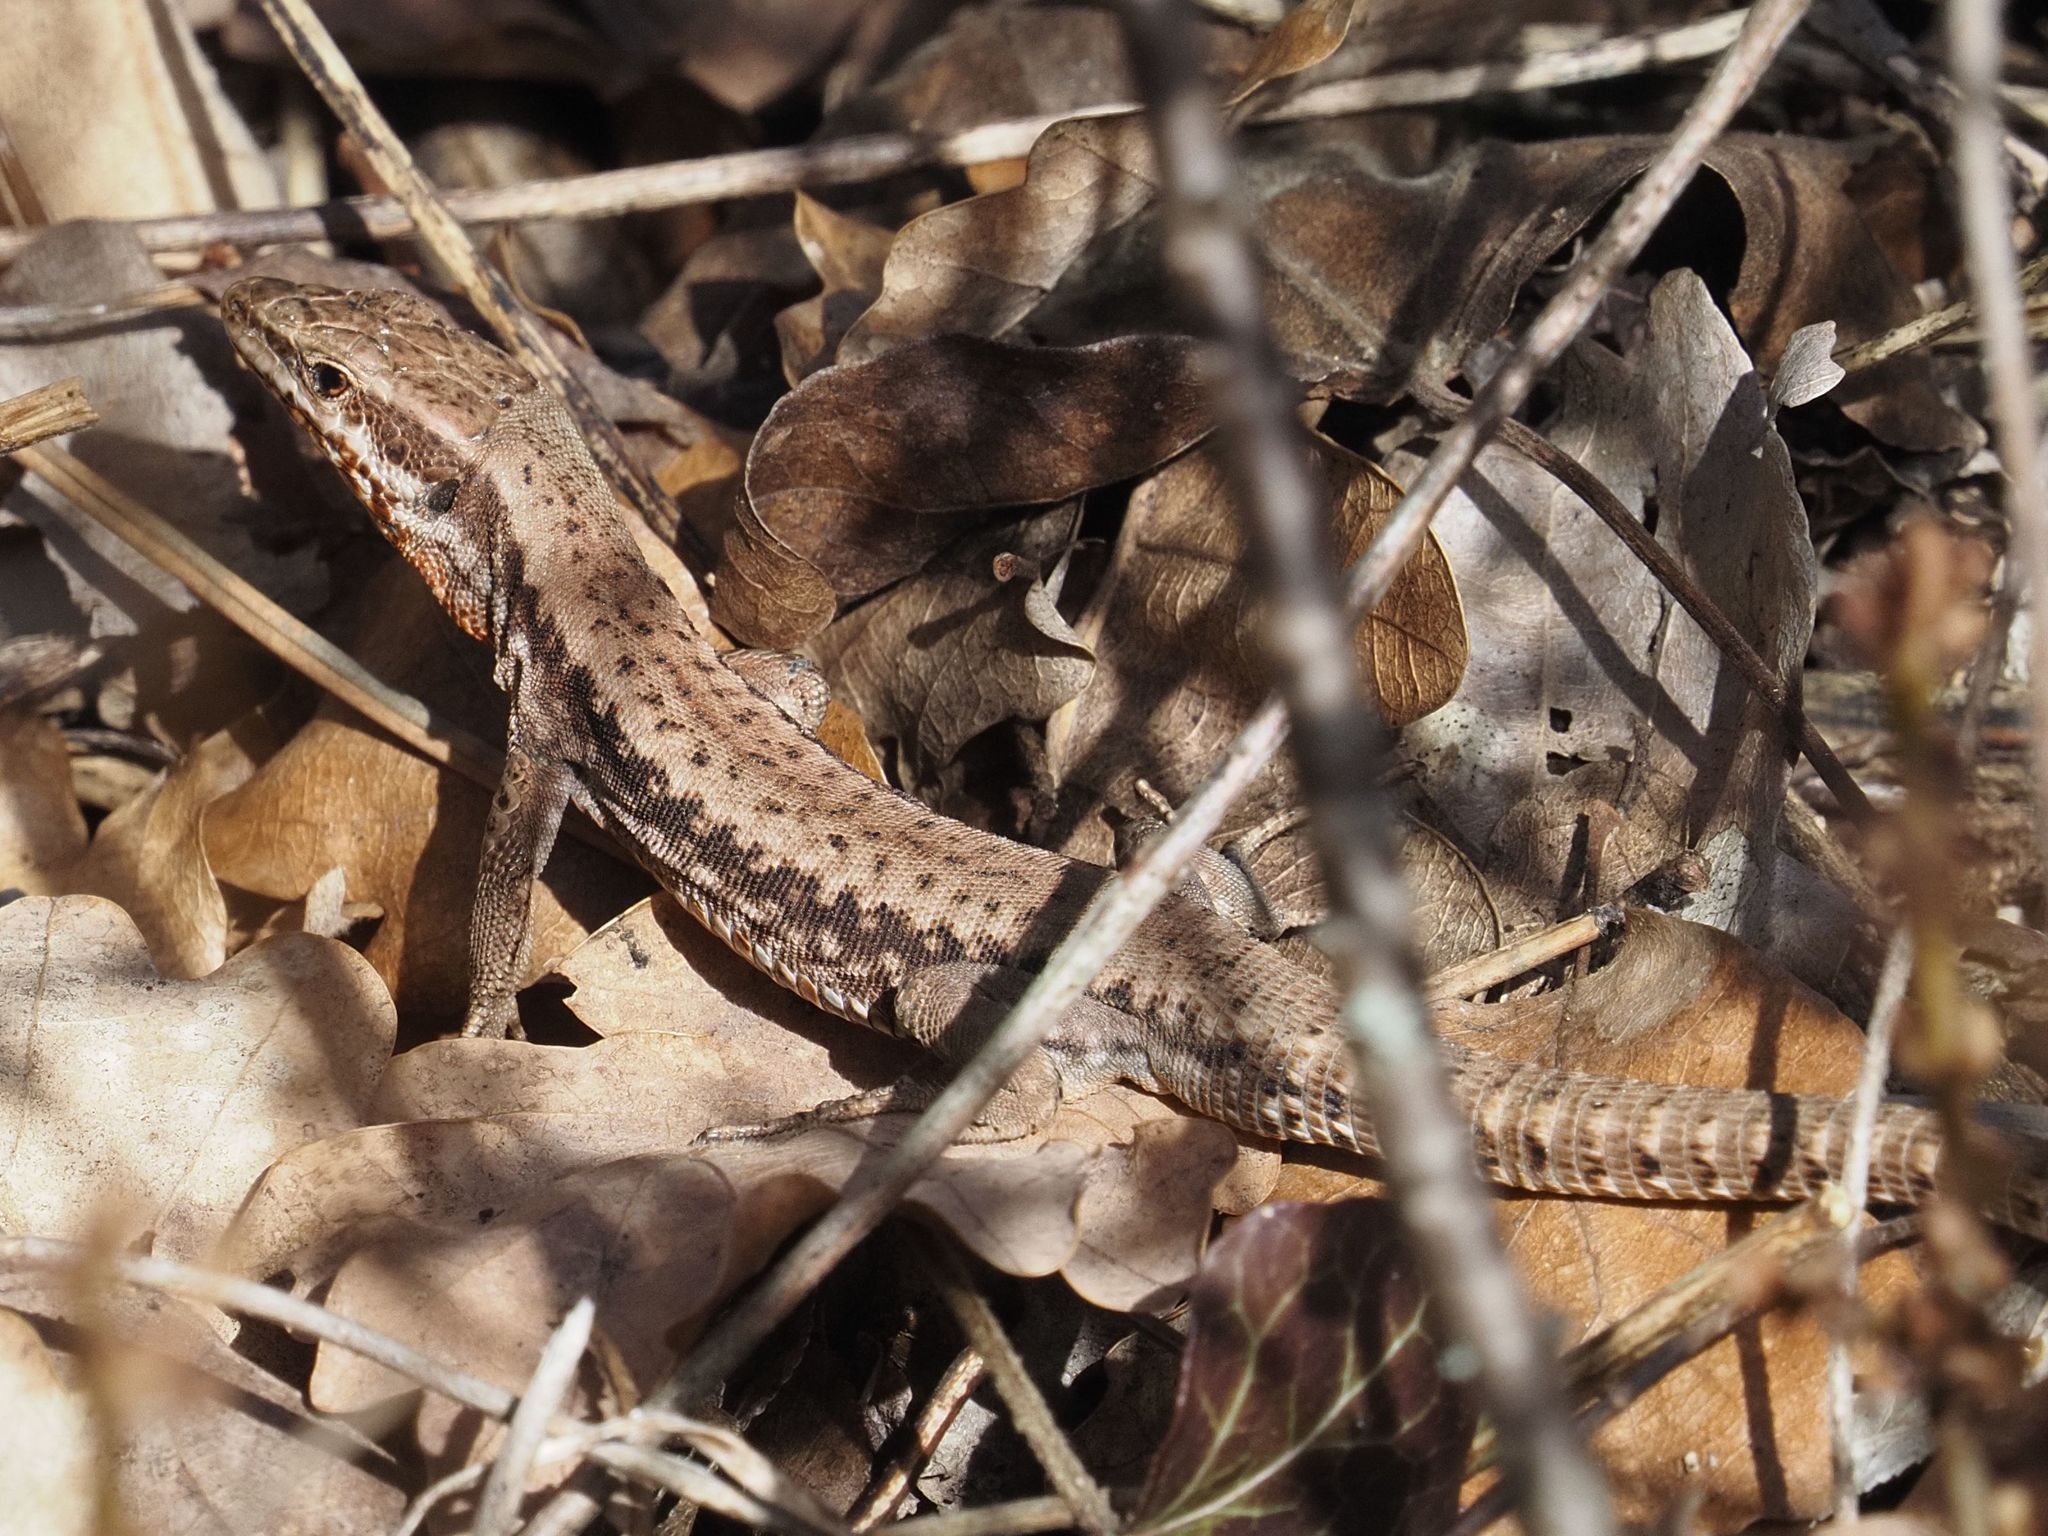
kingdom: Animalia
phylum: Chordata
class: Squamata
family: Lacertidae
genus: Podarcis
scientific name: Podarcis muralis
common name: Common wall lizard
